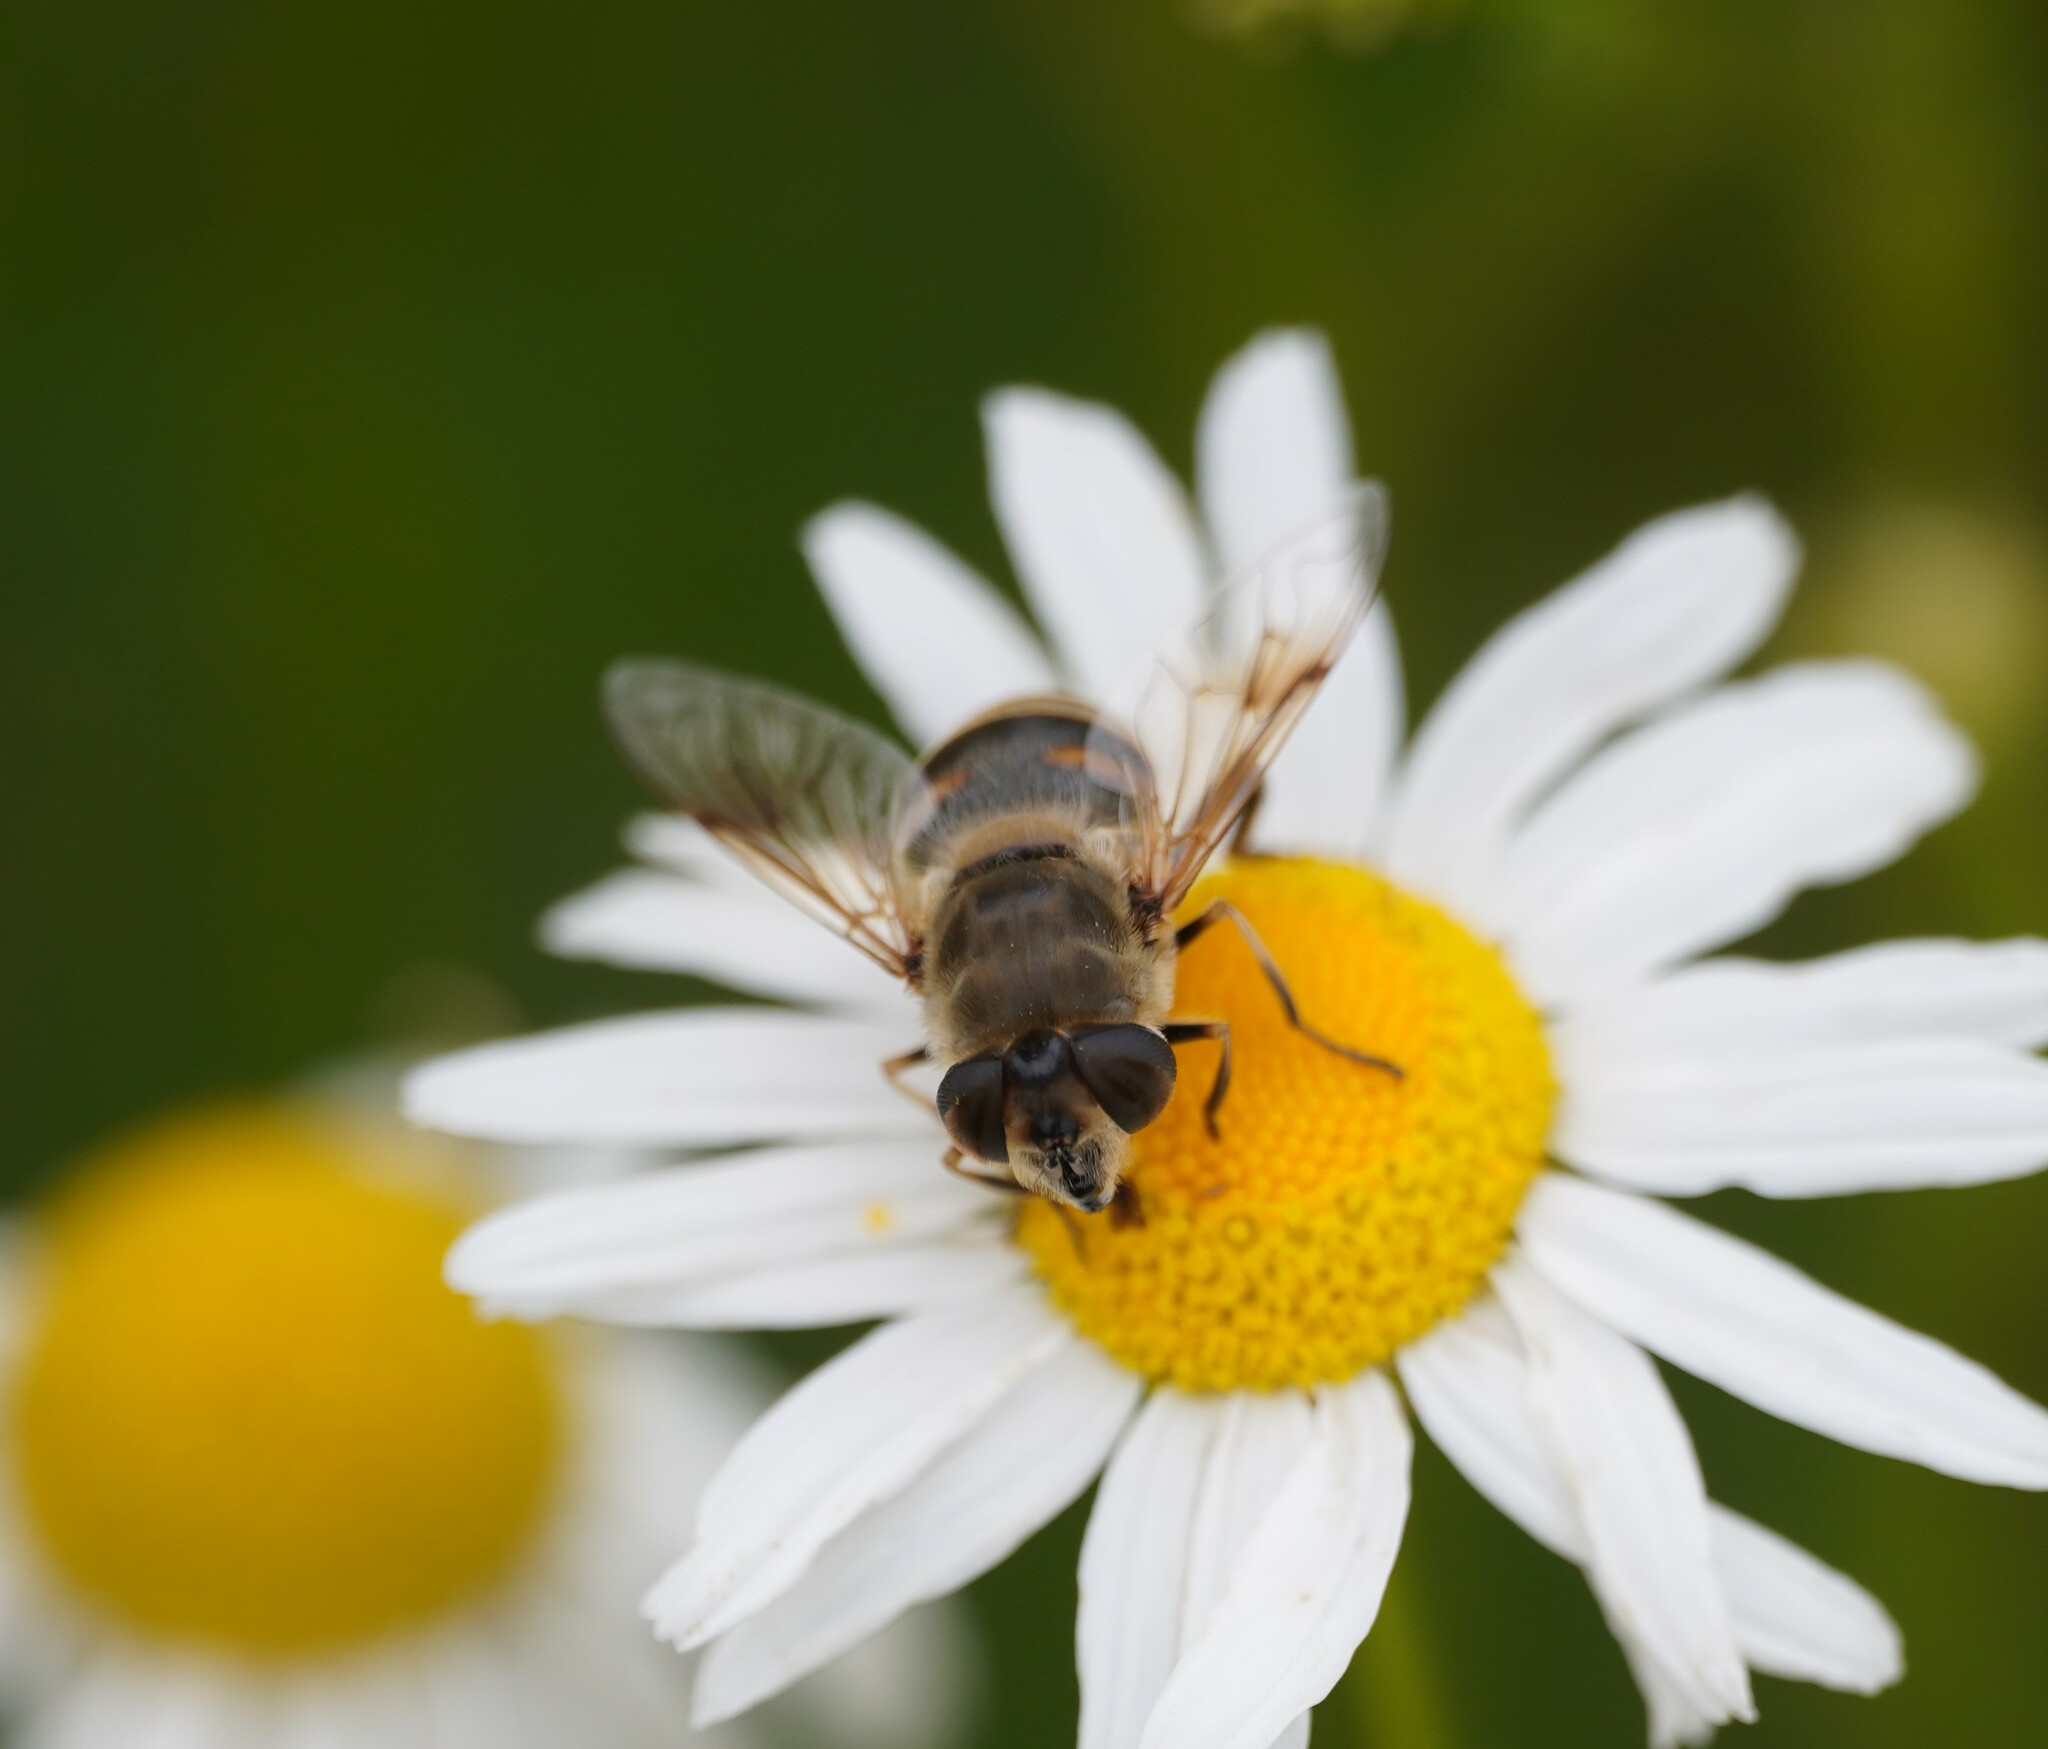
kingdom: Animalia
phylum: Arthropoda
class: Insecta
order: Diptera
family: Syrphidae
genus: Eristalis
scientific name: Eristalis tenax
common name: Drone fly
